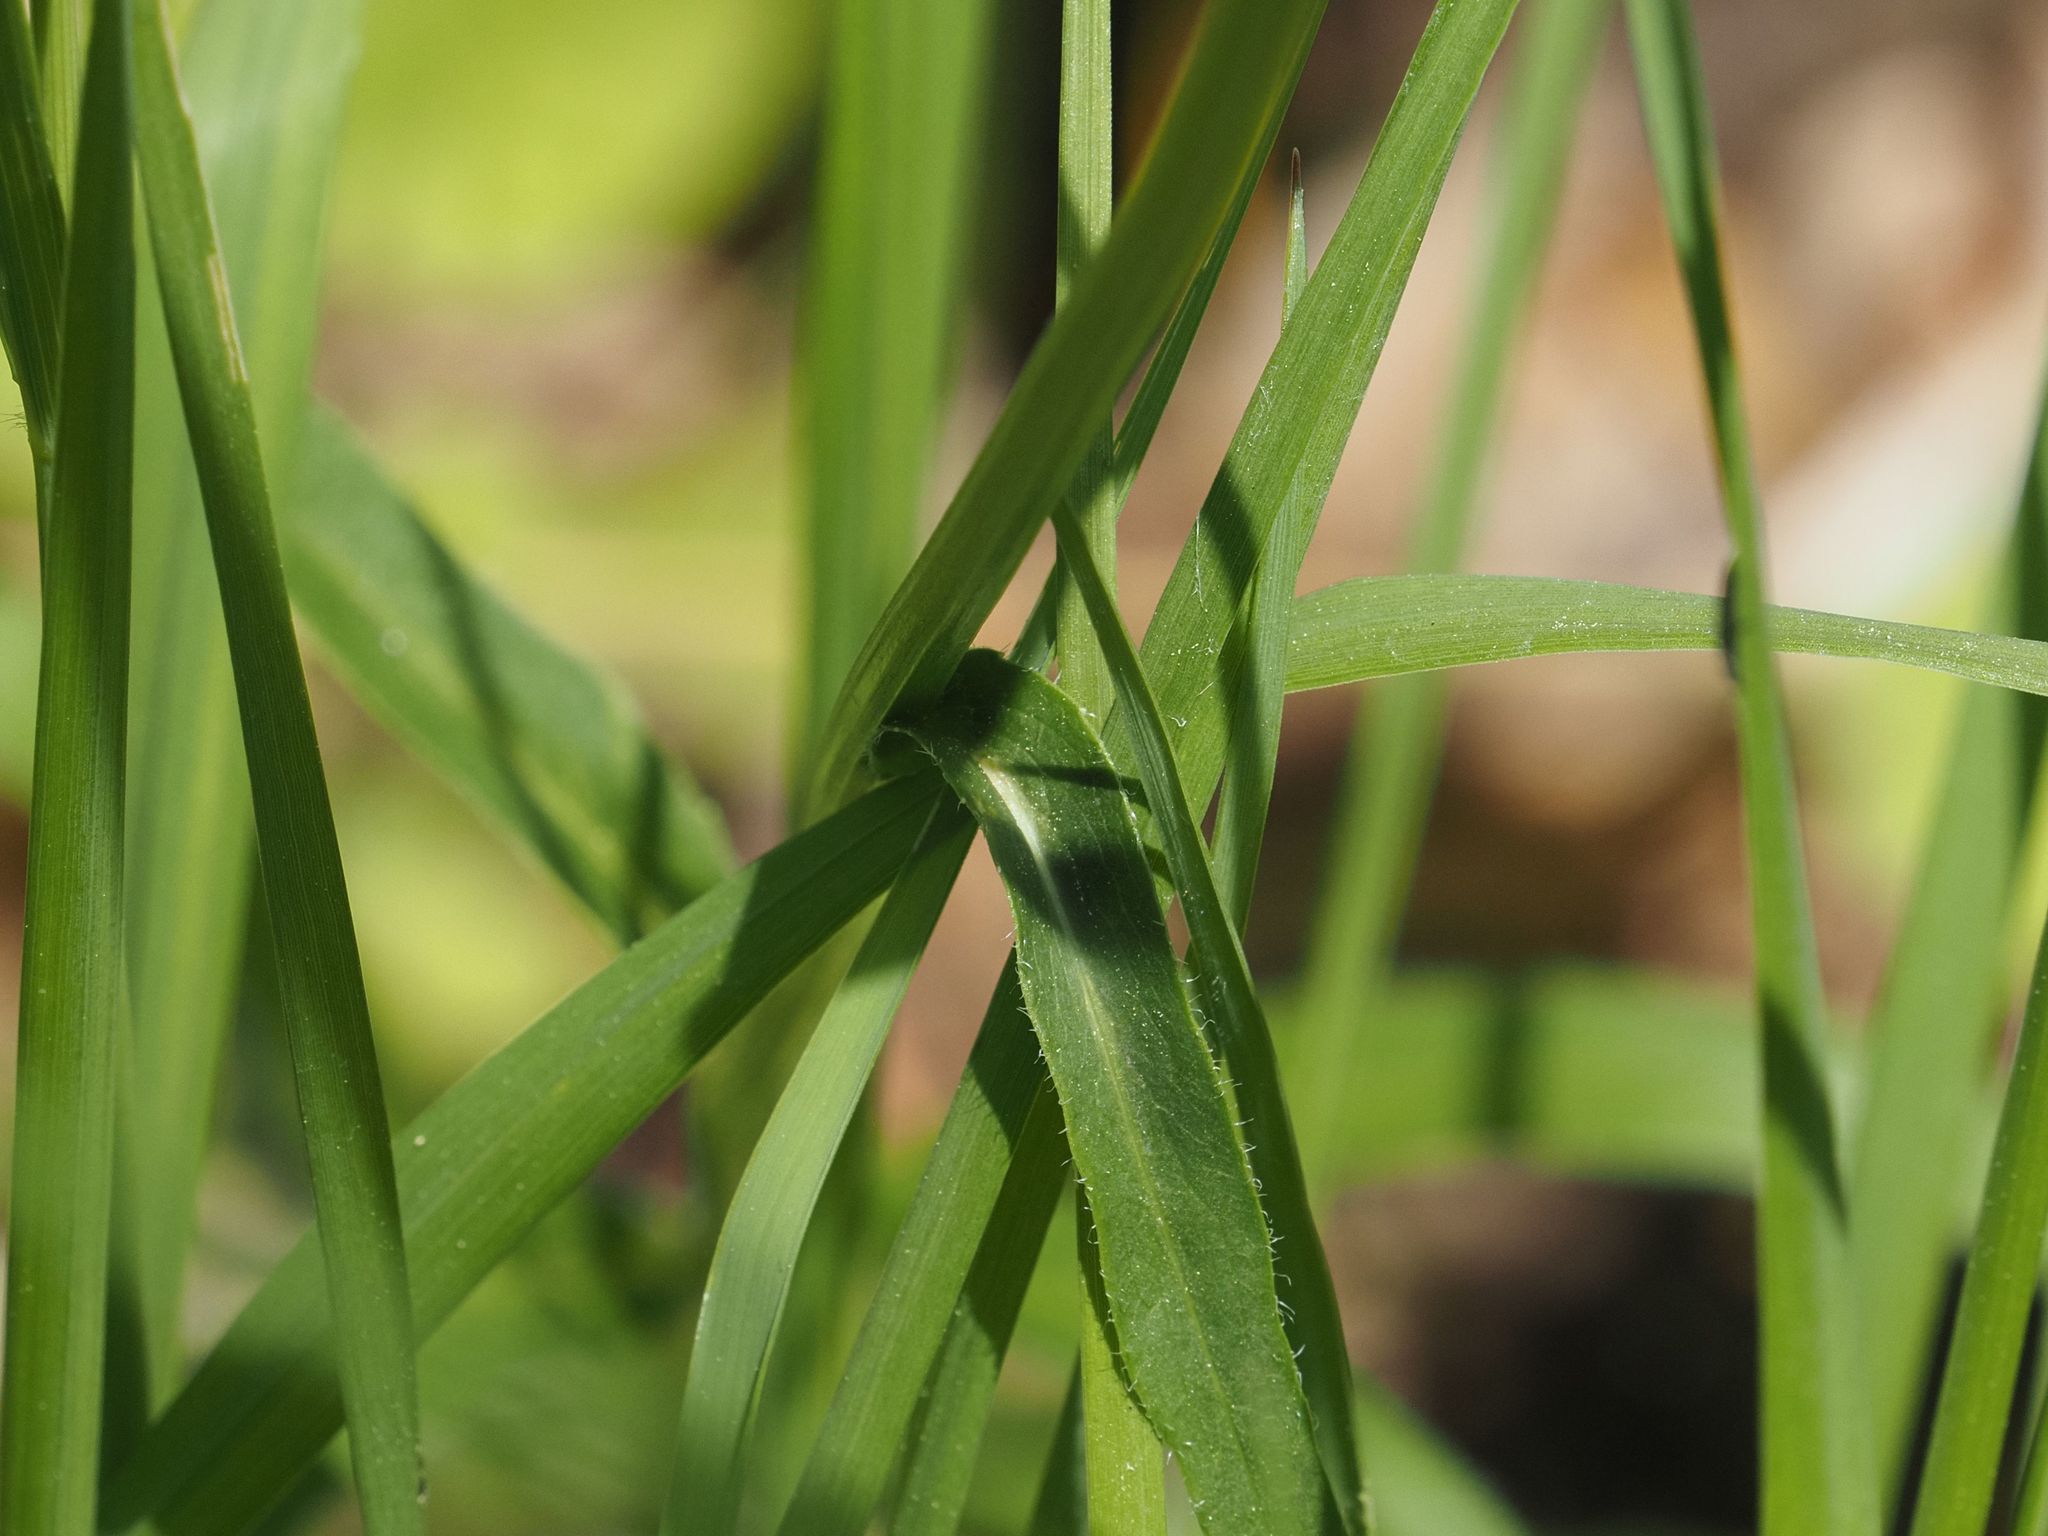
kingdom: Plantae
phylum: Tracheophyta
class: Magnoliopsida
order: Asterales
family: Campanulaceae
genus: Phyteuma
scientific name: Phyteuma orbiculare
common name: Round-headed rampion
